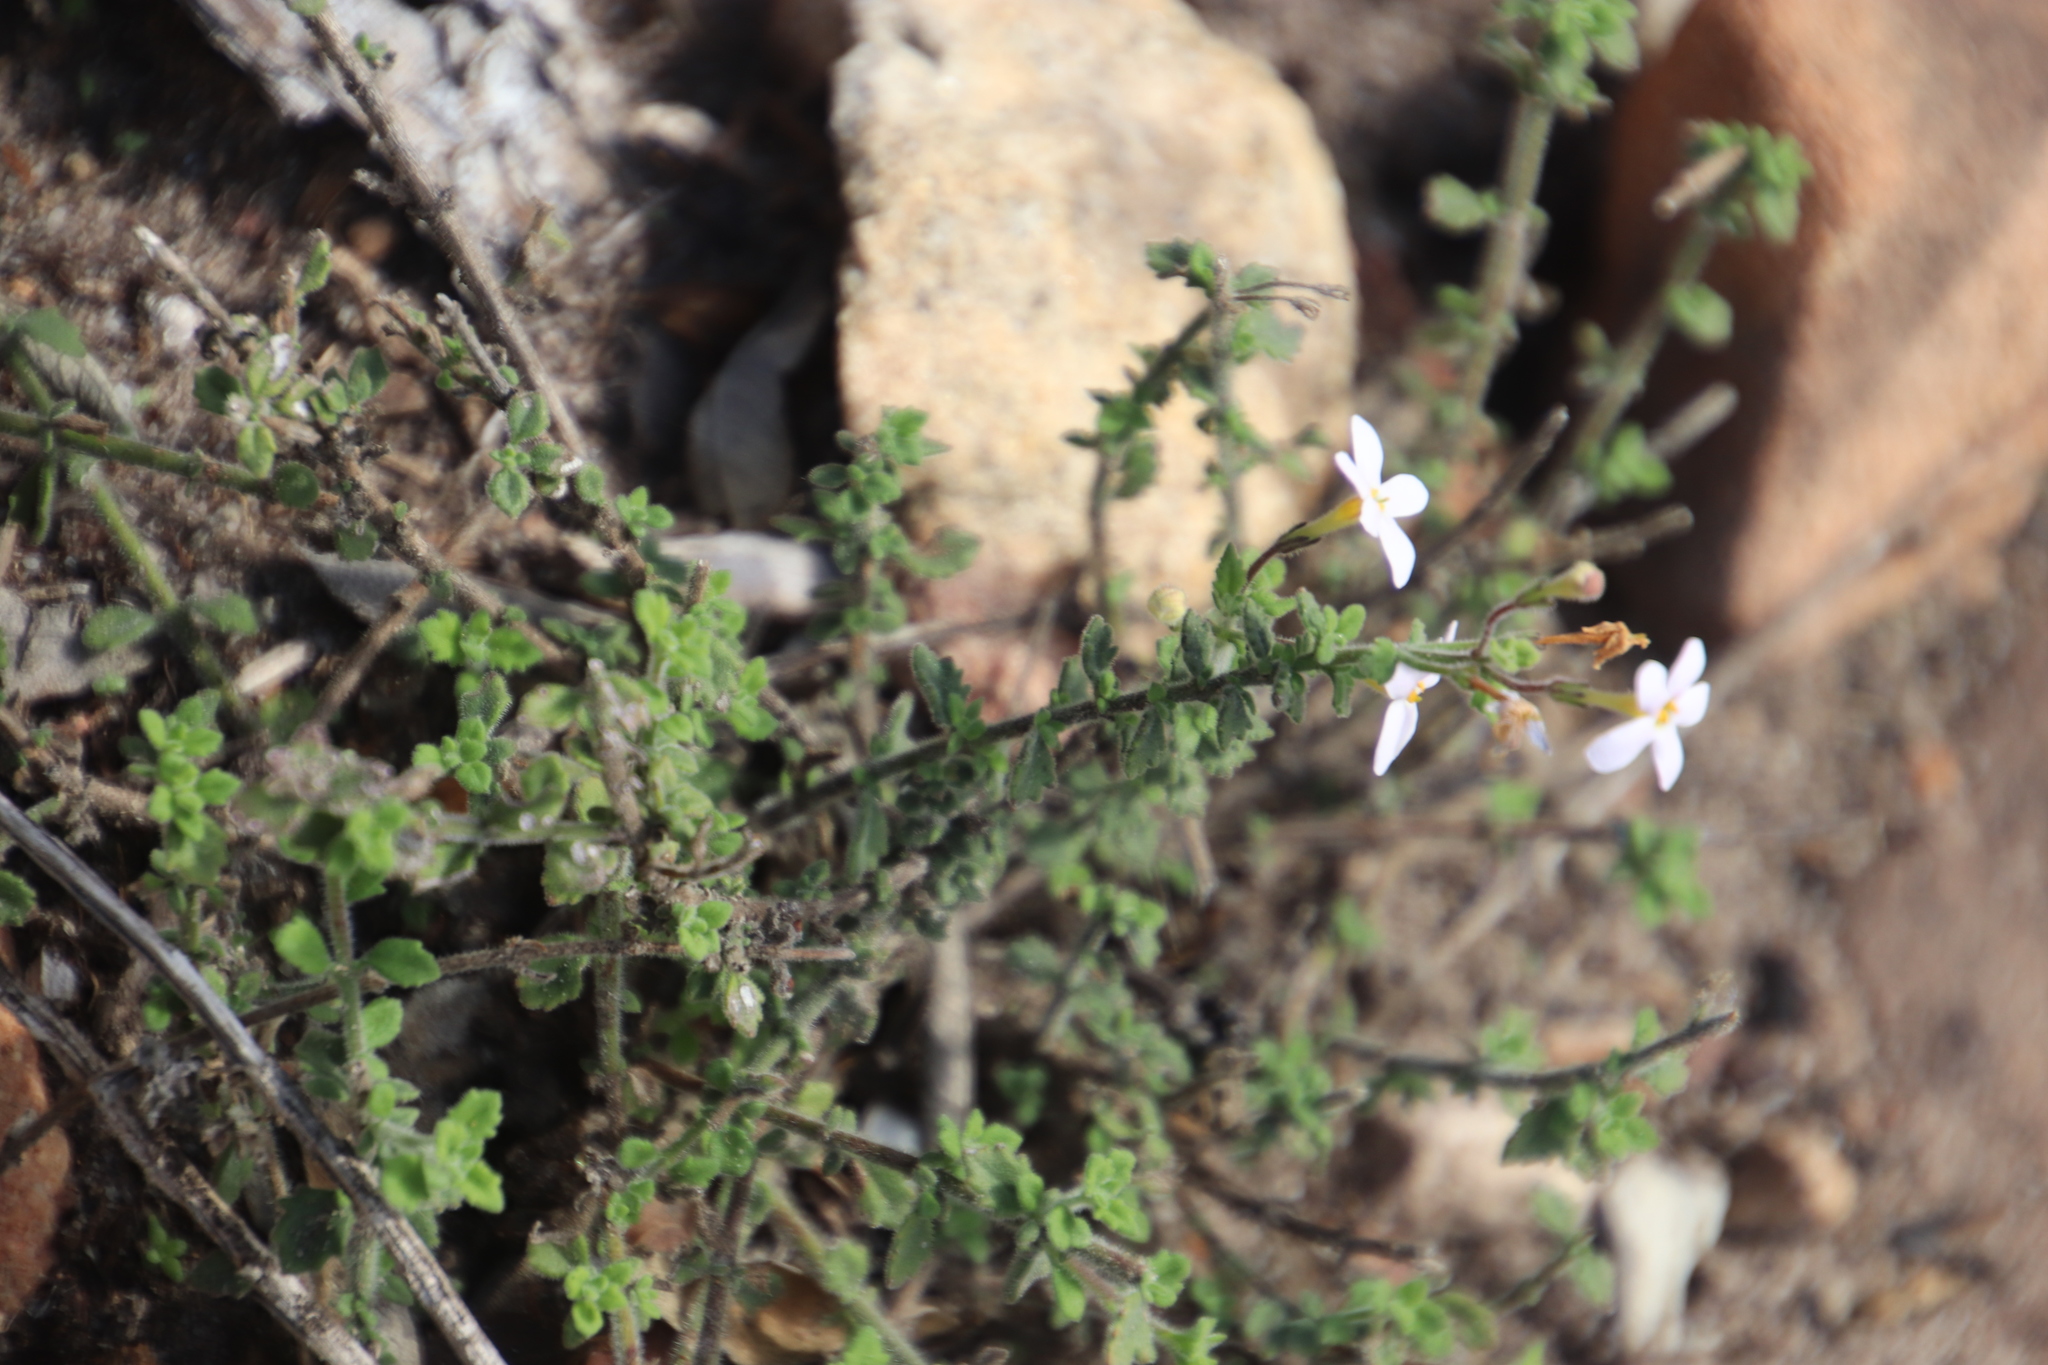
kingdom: Plantae
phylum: Tracheophyta
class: Magnoliopsida
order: Lamiales
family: Scrophulariaceae
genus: Chaenostoma
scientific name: Chaenostoma hispidum
